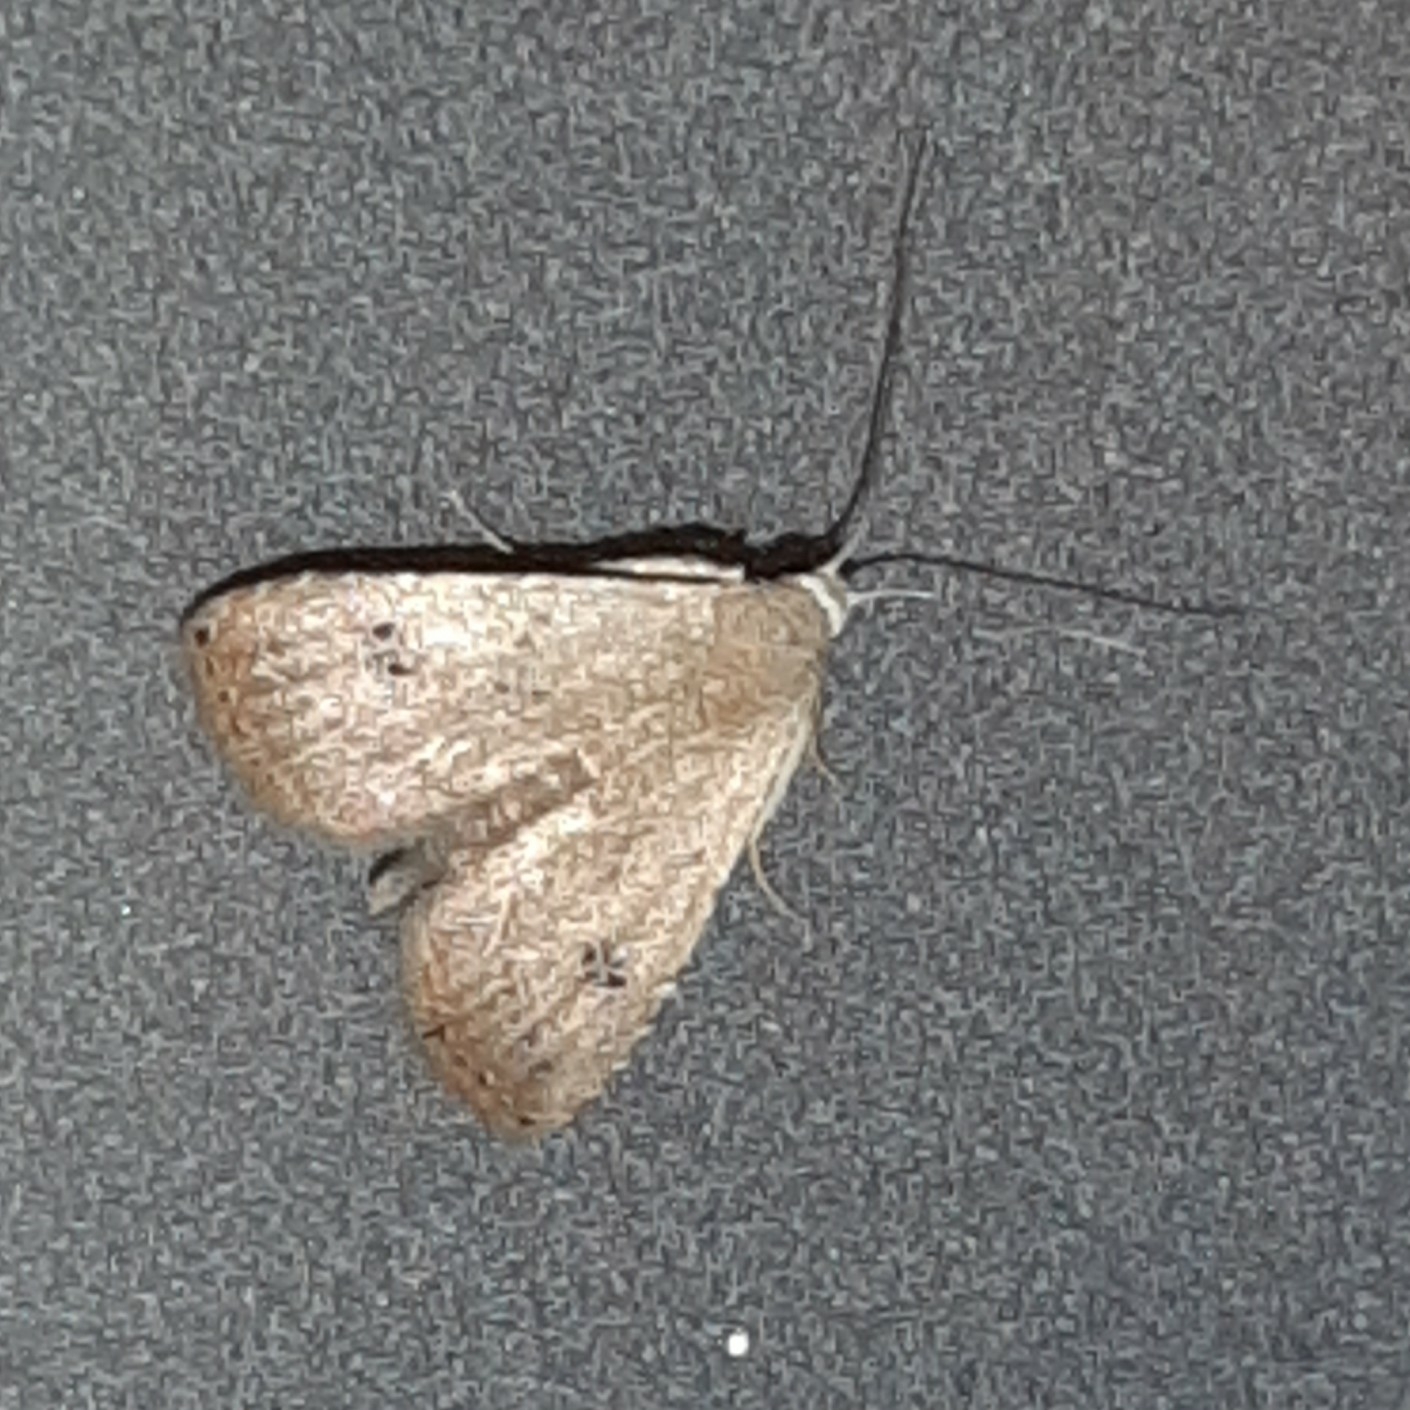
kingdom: Animalia
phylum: Arthropoda
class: Insecta
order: Lepidoptera
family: Erebidae
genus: Rivula
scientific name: Rivula pusilla
